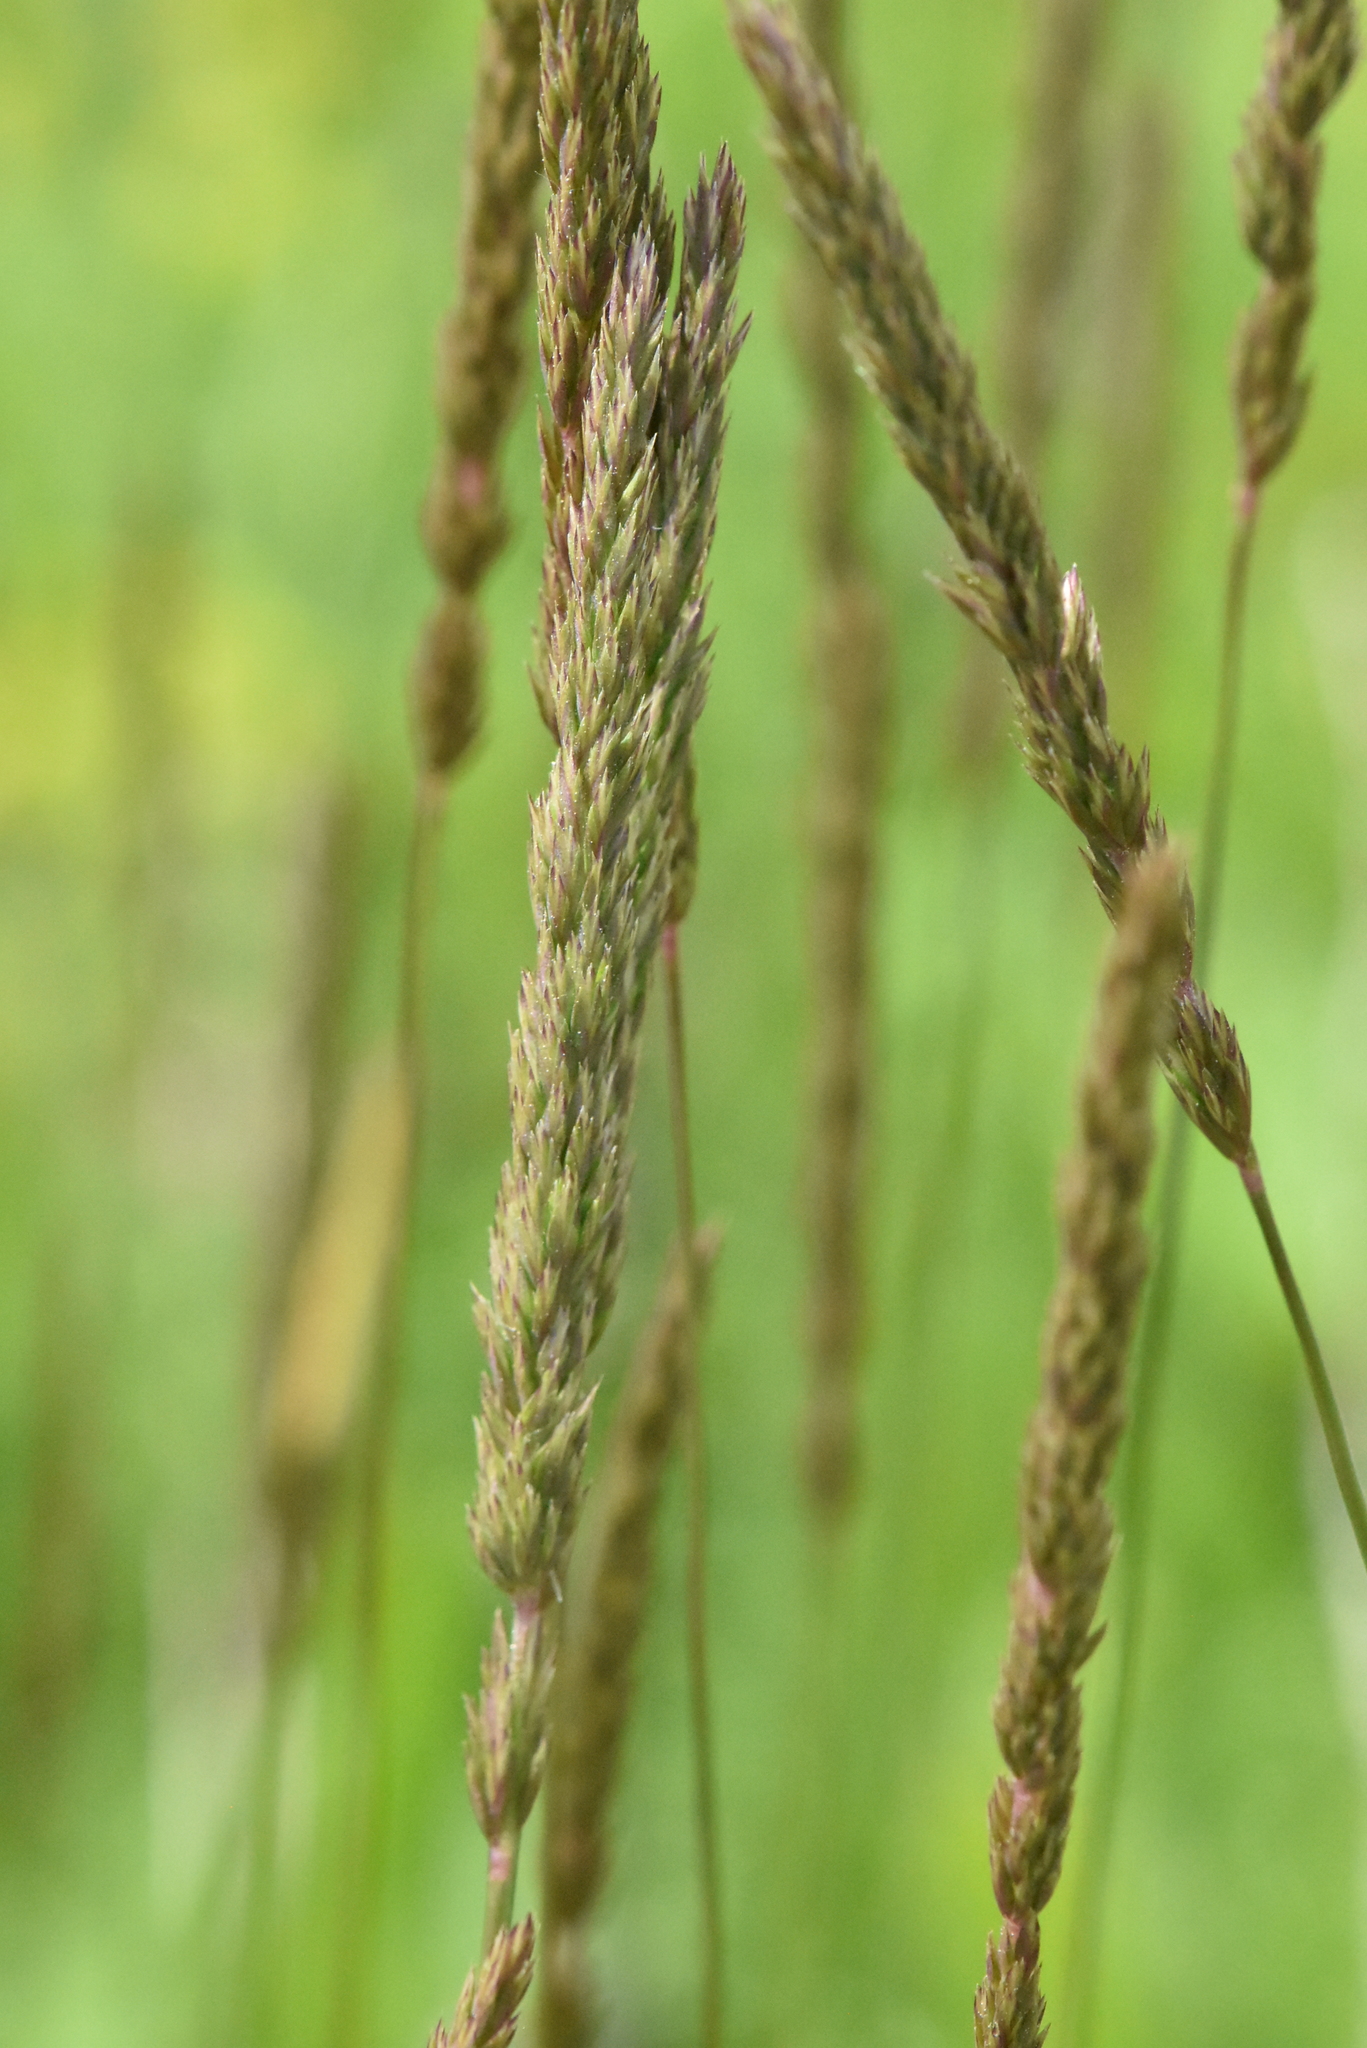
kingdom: Plantae
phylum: Tracheophyta
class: Liliopsida
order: Poales
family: Poaceae
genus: Koeleria
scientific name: Koeleria macrantha
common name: Crested hair-grass
